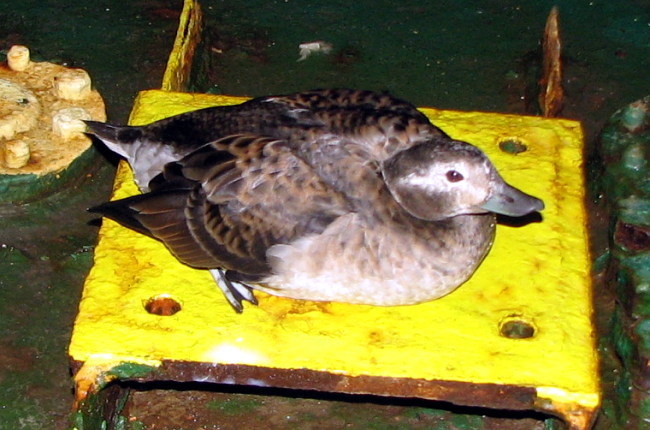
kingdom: Animalia
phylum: Chordata
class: Aves
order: Anseriformes
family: Anatidae
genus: Clangula
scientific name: Clangula hyemalis
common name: Long-tailed duck
